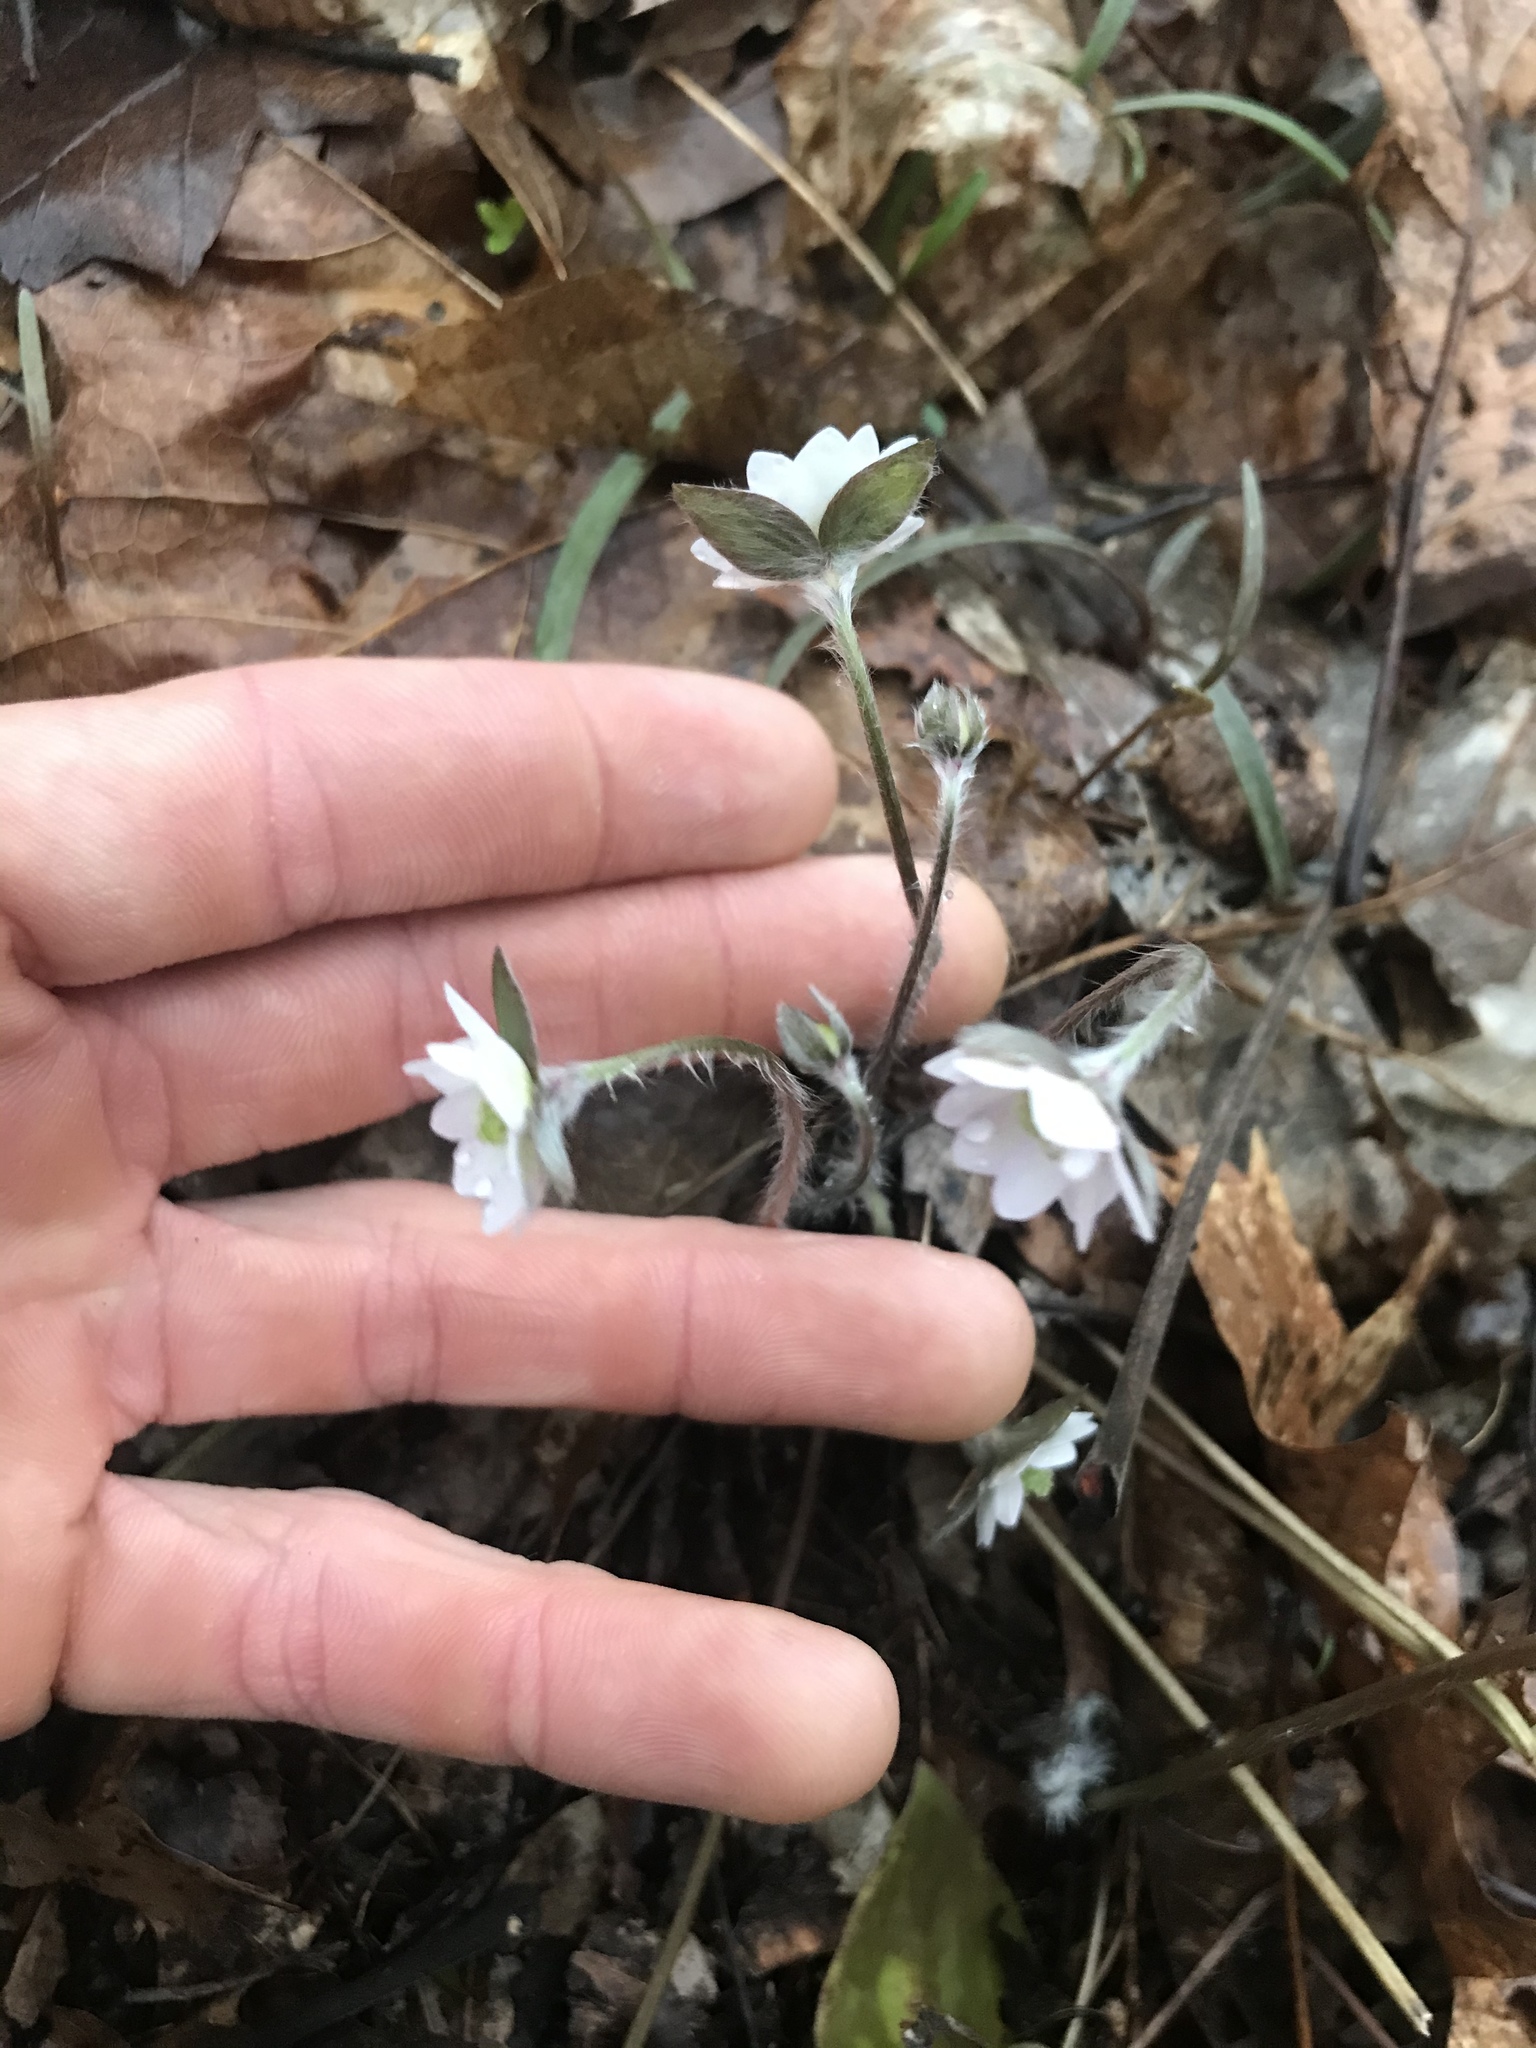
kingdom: Plantae
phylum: Tracheophyta
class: Magnoliopsida
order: Ranunculales
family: Ranunculaceae
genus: Hepatica
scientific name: Hepatica acutiloba
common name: Sharp-lobed hepatica
